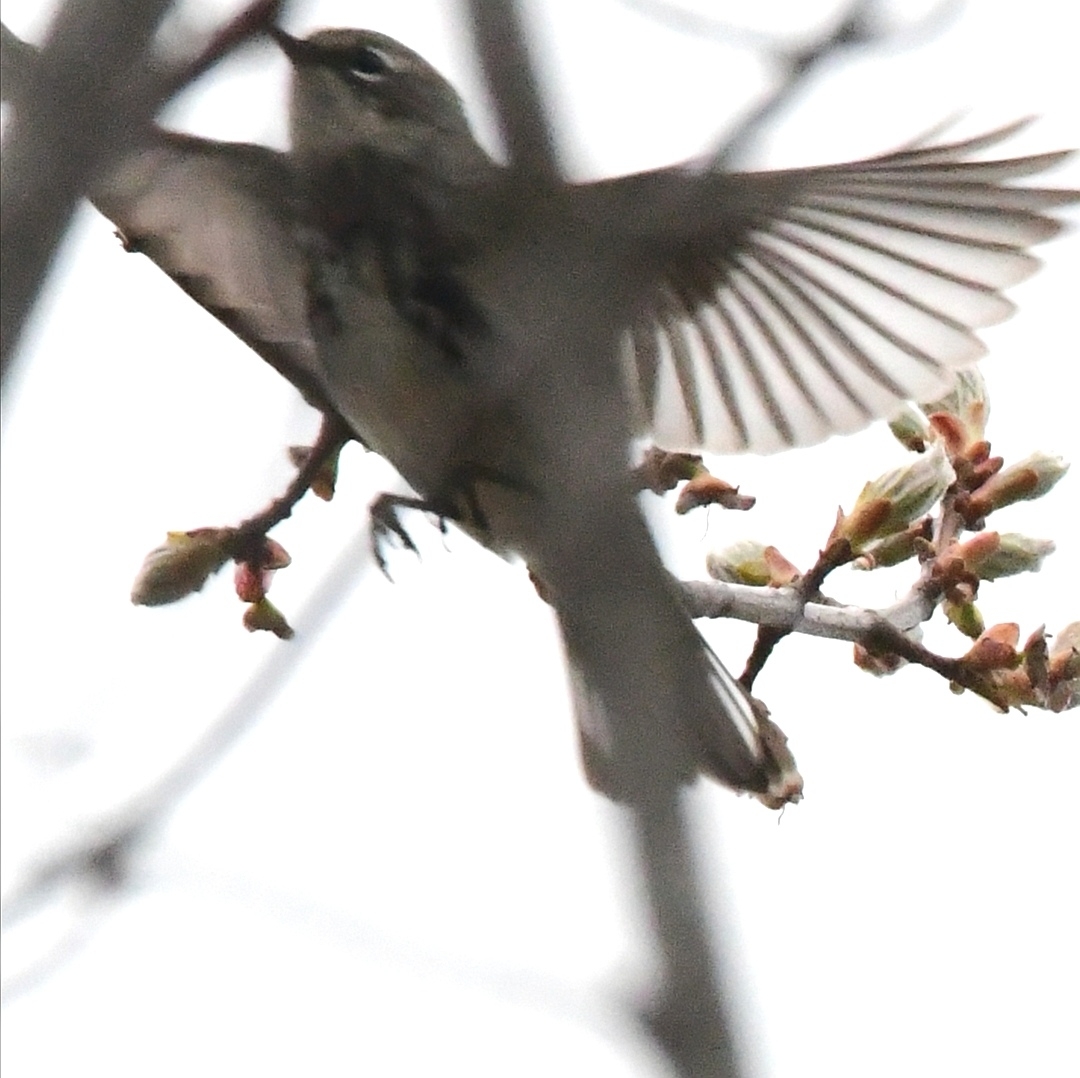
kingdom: Animalia
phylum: Chordata
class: Aves
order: Passeriformes
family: Parulidae
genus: Setophaga
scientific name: Setophaga coronata
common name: Myrtle warbler
